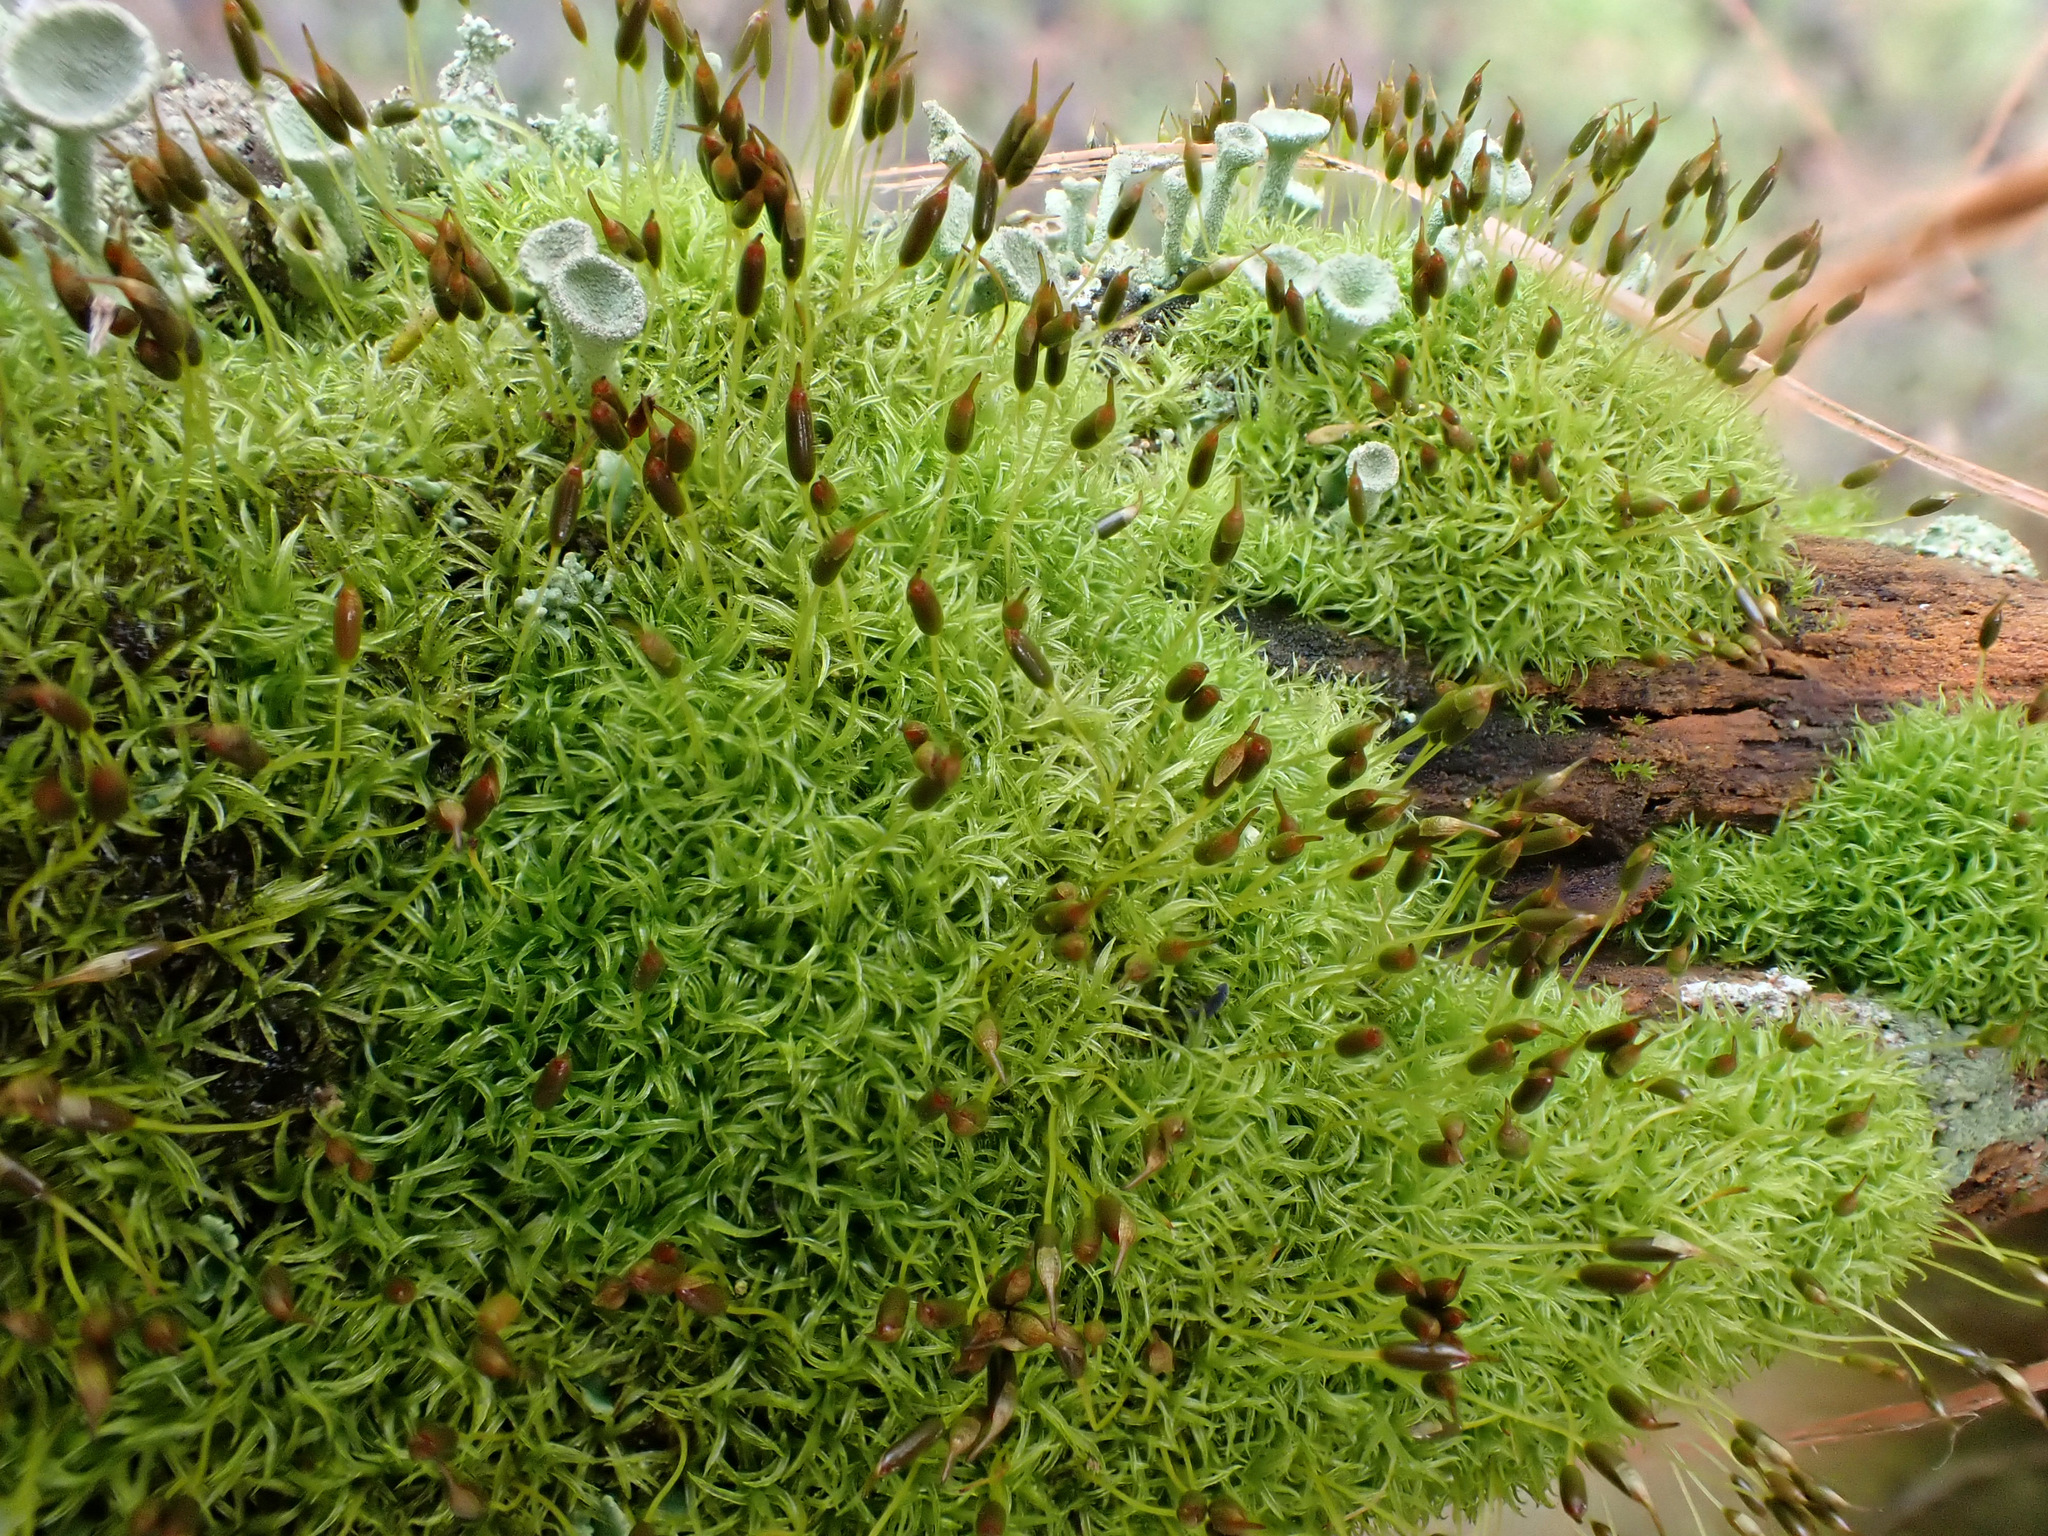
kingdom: Plantae
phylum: Bryophyta
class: Bryopsida
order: Dicranales
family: Rhabdoweisiaceae
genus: Dicranoweisia
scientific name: Dicranoweisia cirrata
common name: Common pincushion
